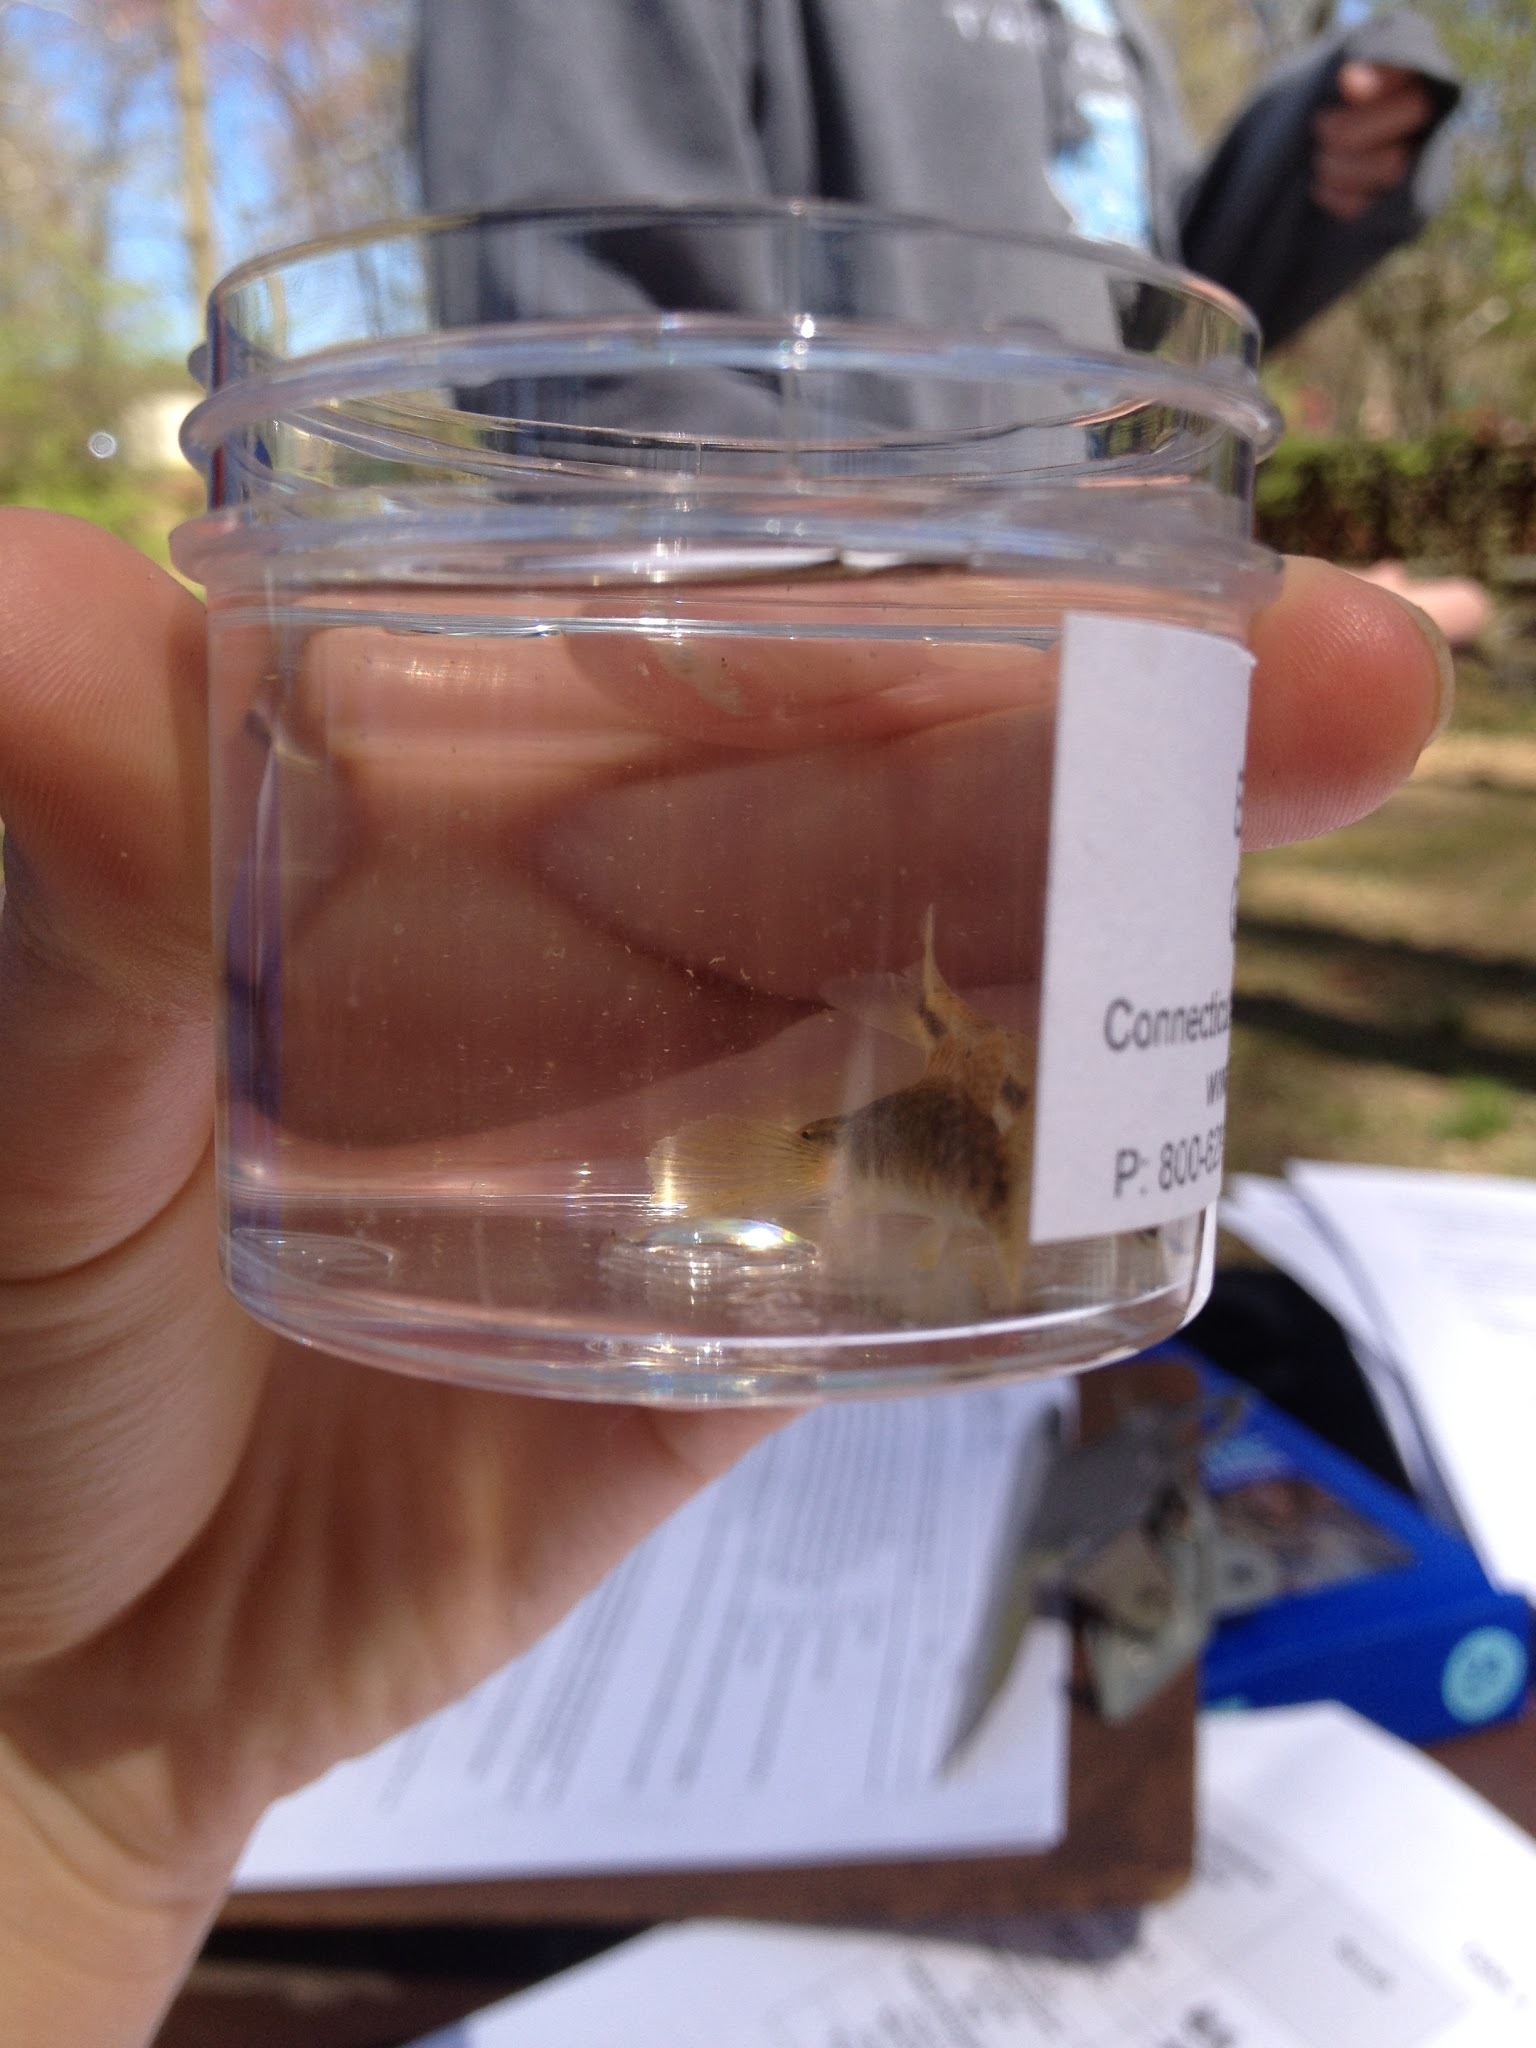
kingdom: Animalia
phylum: Chordata
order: Perciformes
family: Percidae
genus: Etheostoma
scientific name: Etheostoma flabellare
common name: Fantail darter
